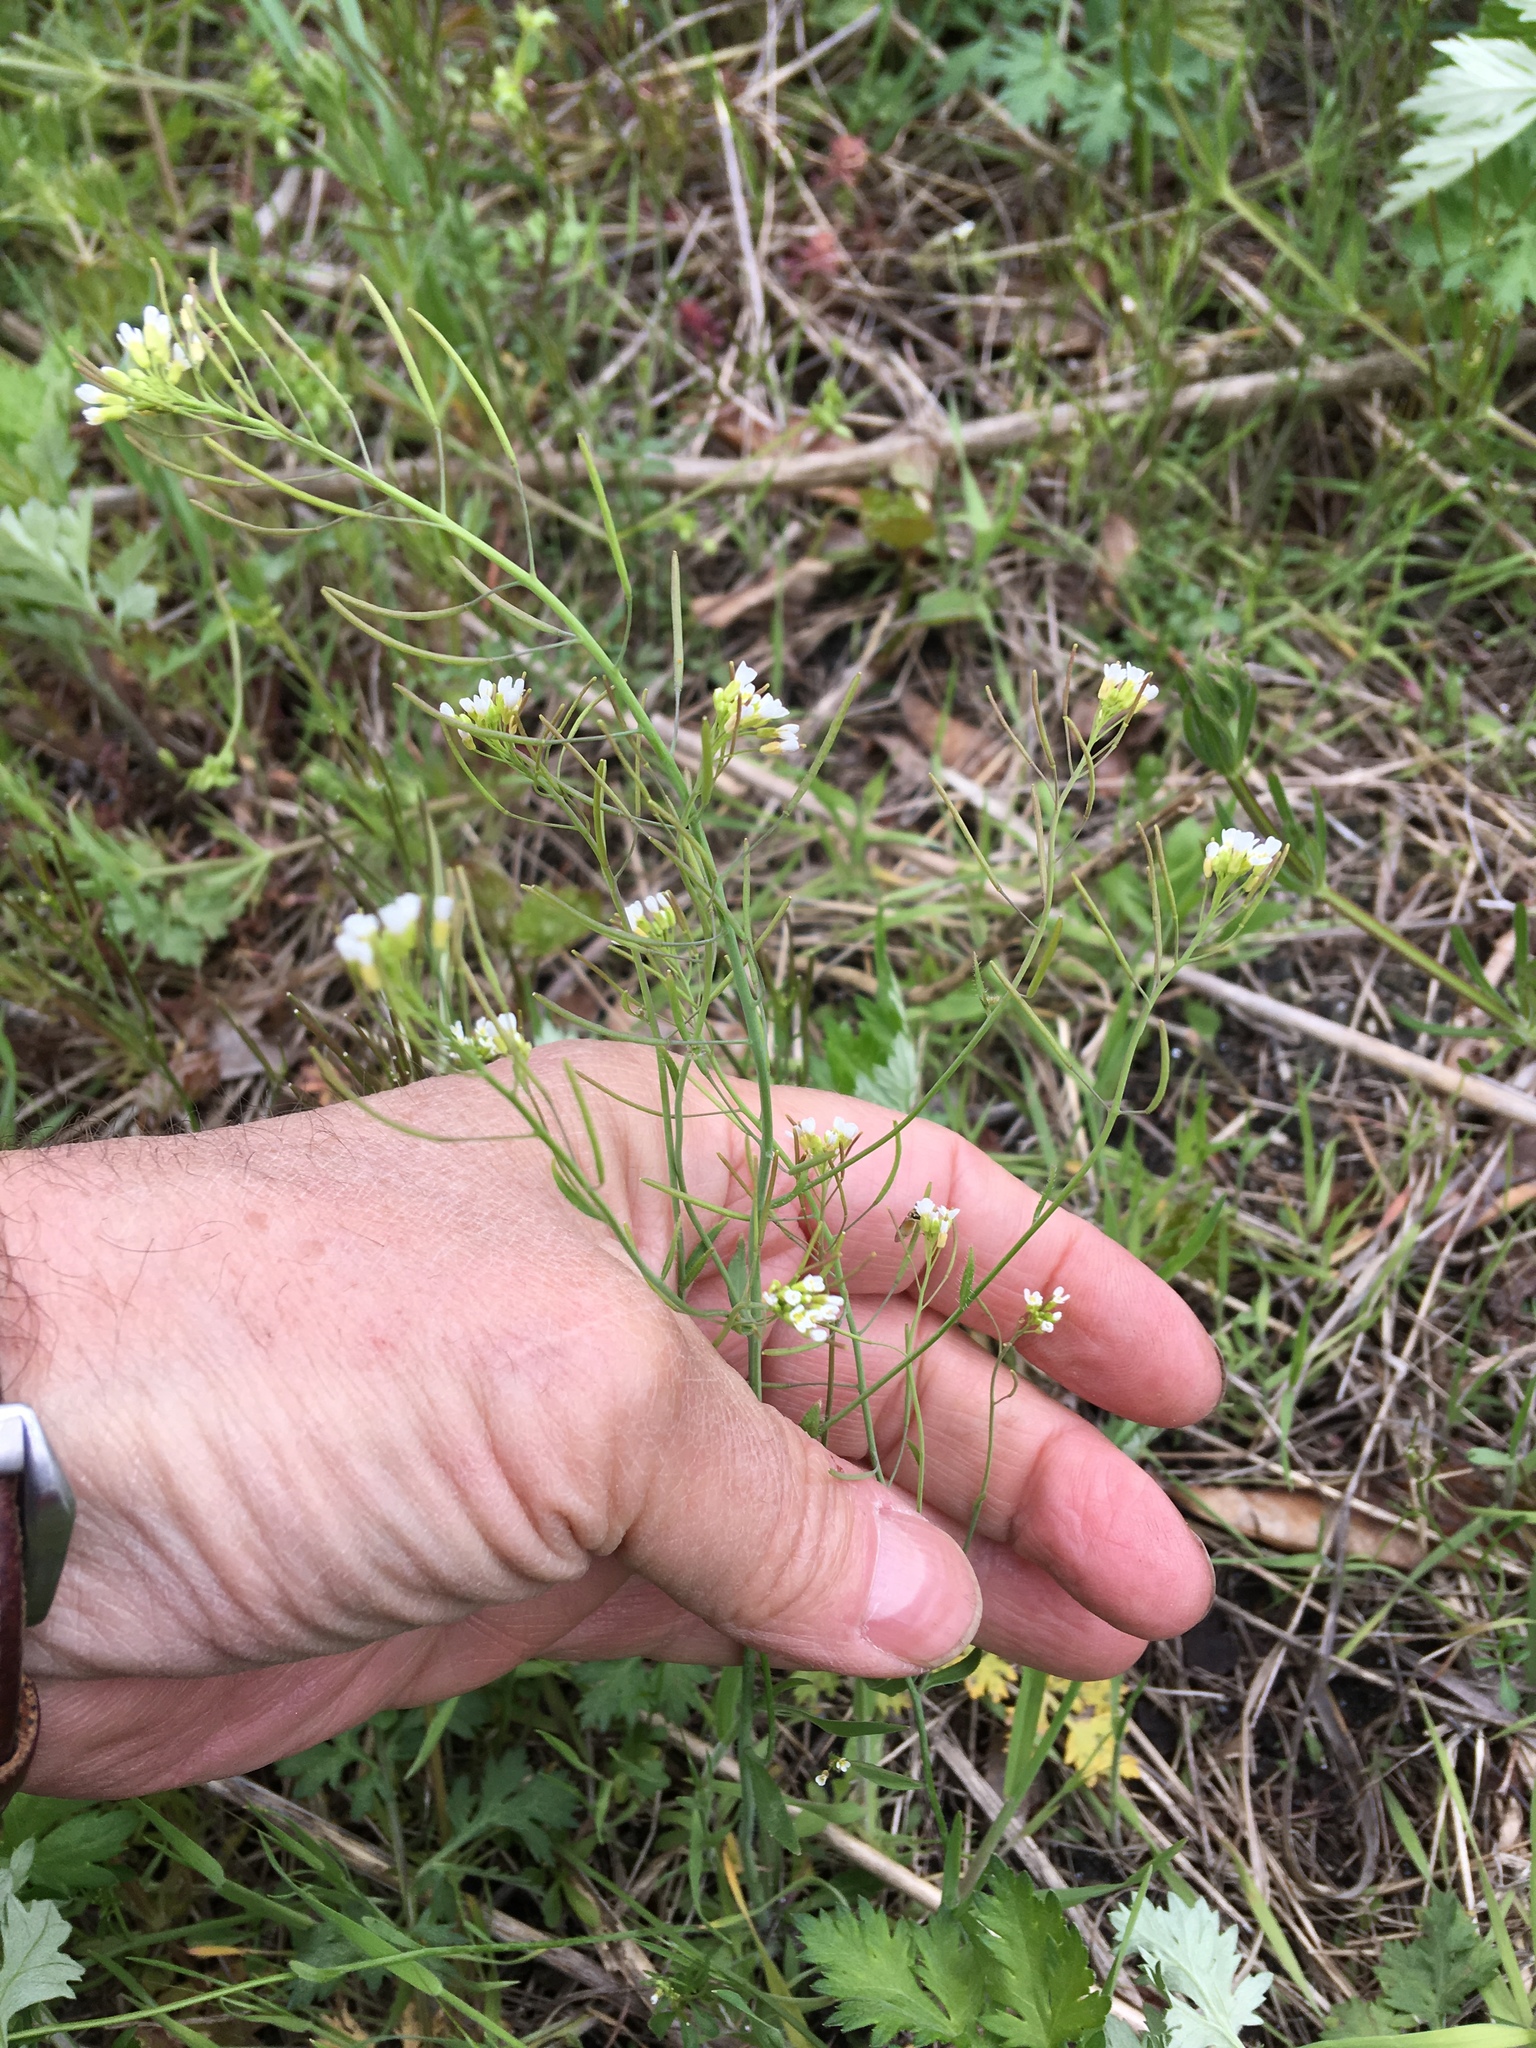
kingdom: Plantae
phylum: Tracheophyta
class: Magnoliopsida
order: Brassicales
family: Brassicaceae
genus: Arabidopsis
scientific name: Arabidopsis thaliana
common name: Thale cress
